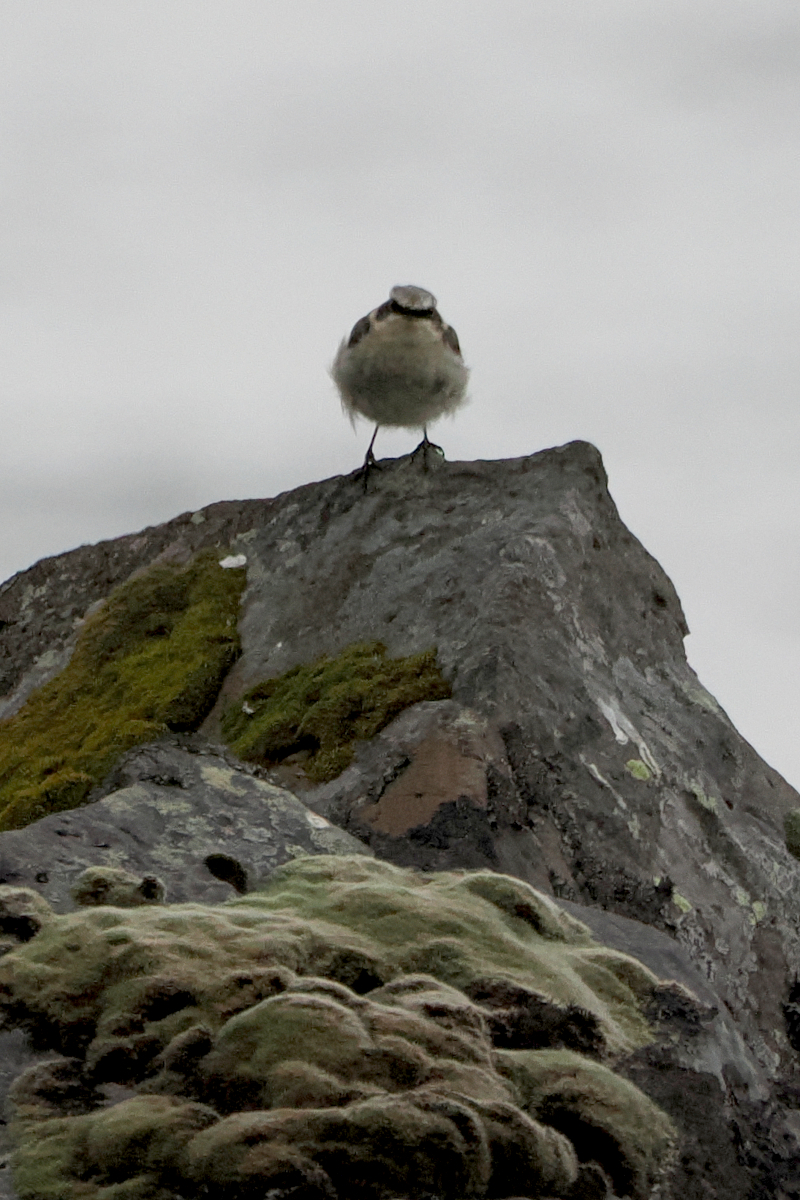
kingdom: Animalia
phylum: Chordata
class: Aves
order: Passeriformes
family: Muscicapidae
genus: Oenanthe
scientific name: Oenanthe oenanthe
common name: Northern wheatear
